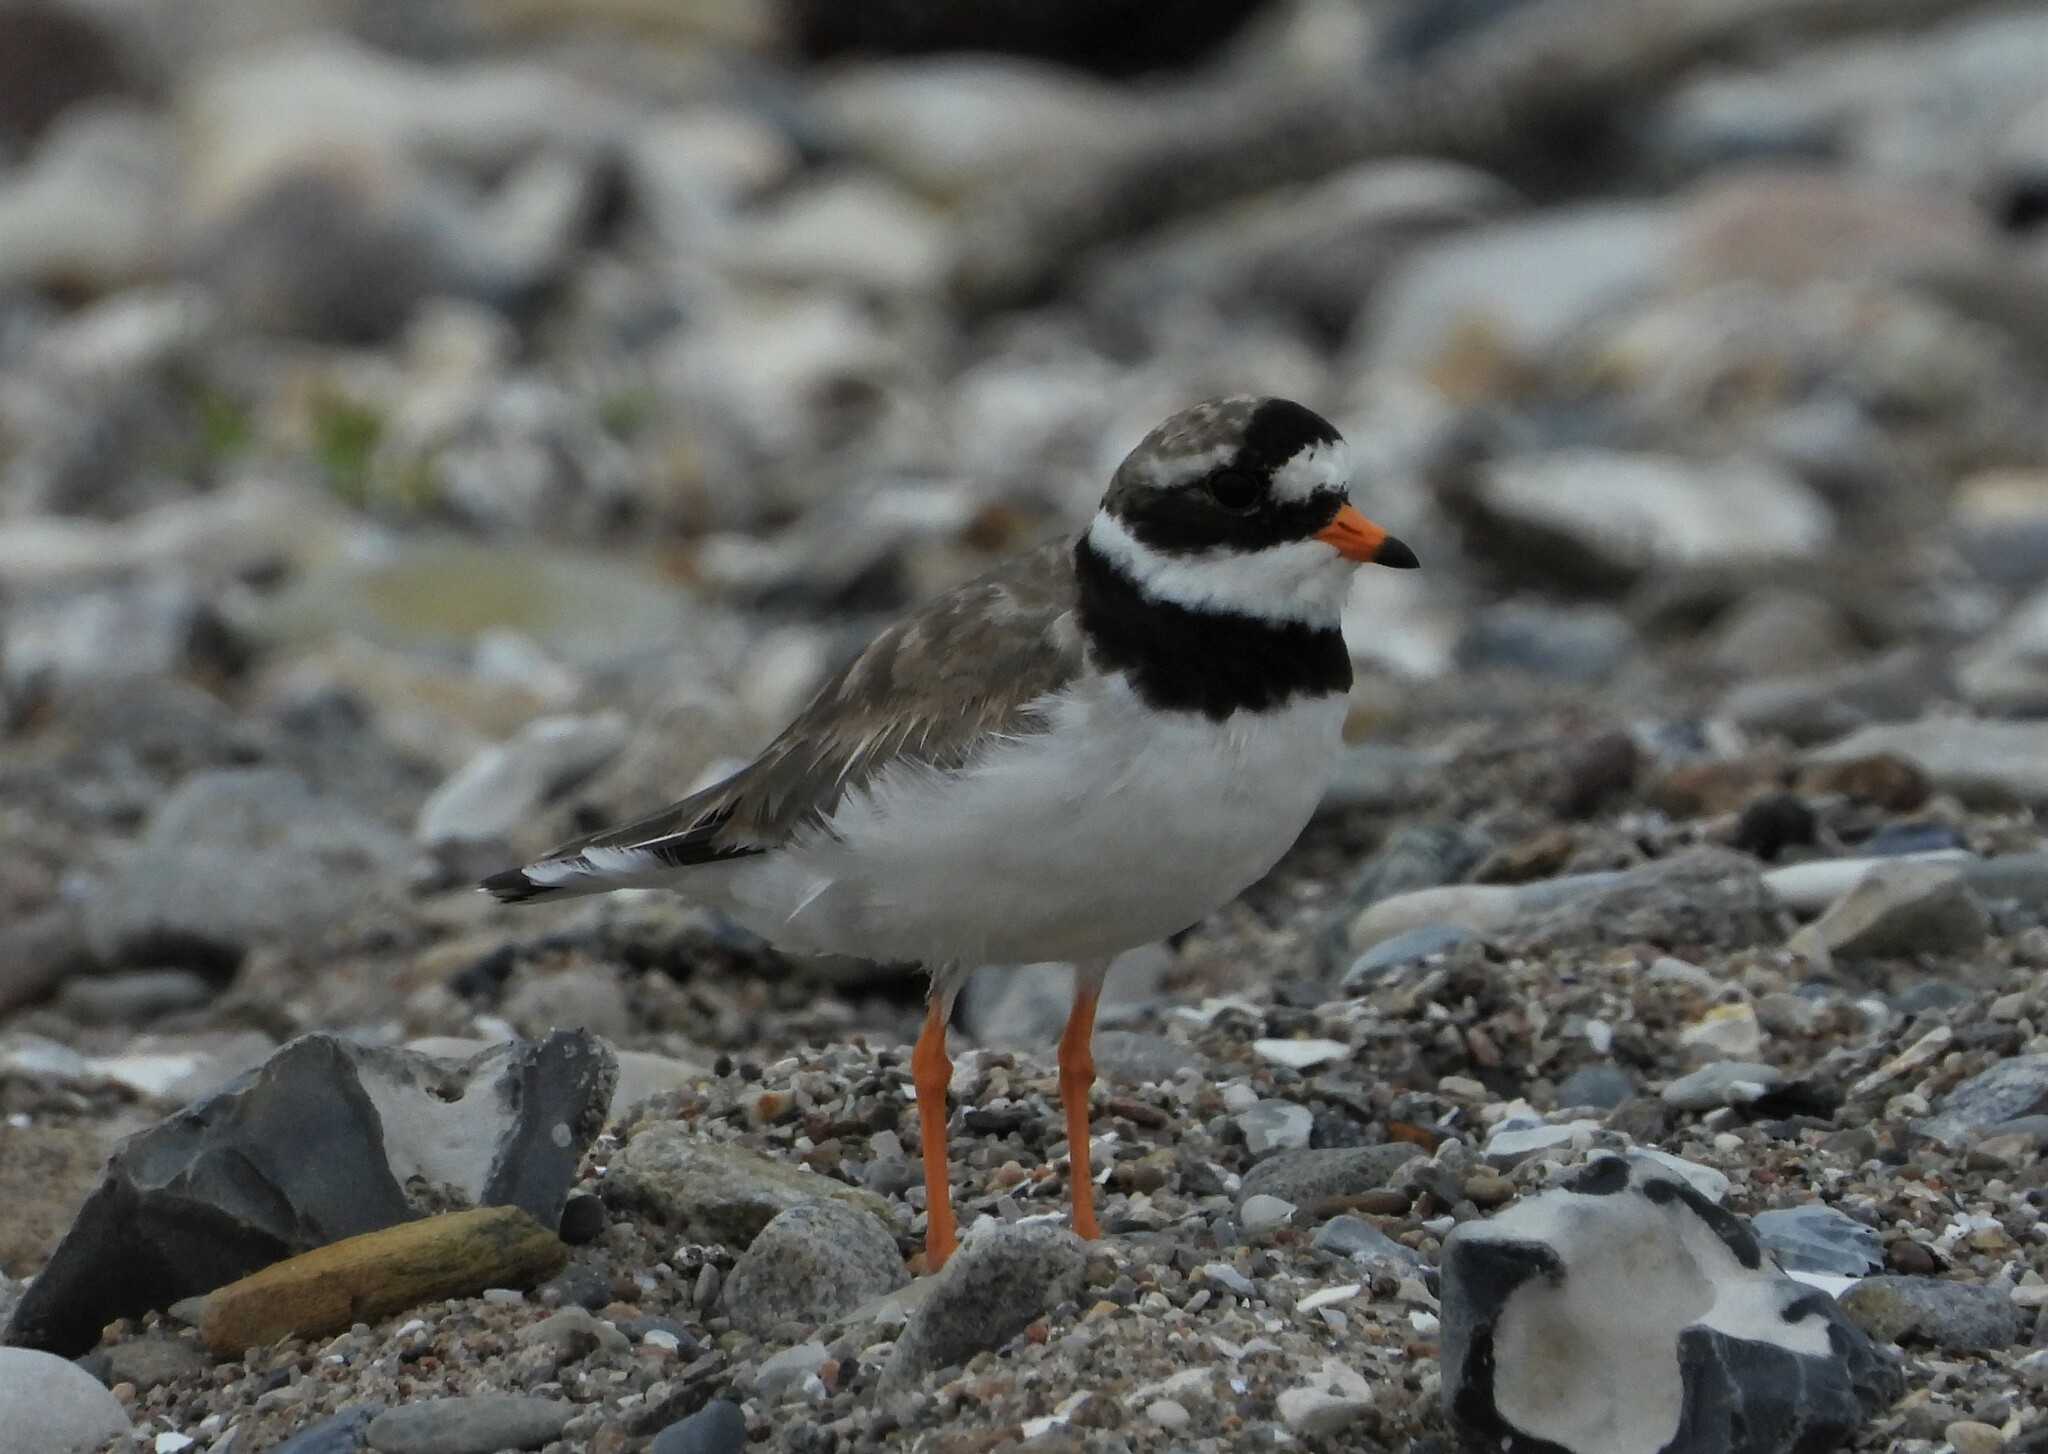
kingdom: Animalia
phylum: Chordata
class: Aves
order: Charadriiformes
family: Charadriidae
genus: Charadrius
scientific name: Charadrius hiaticula
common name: Common ringed plover
